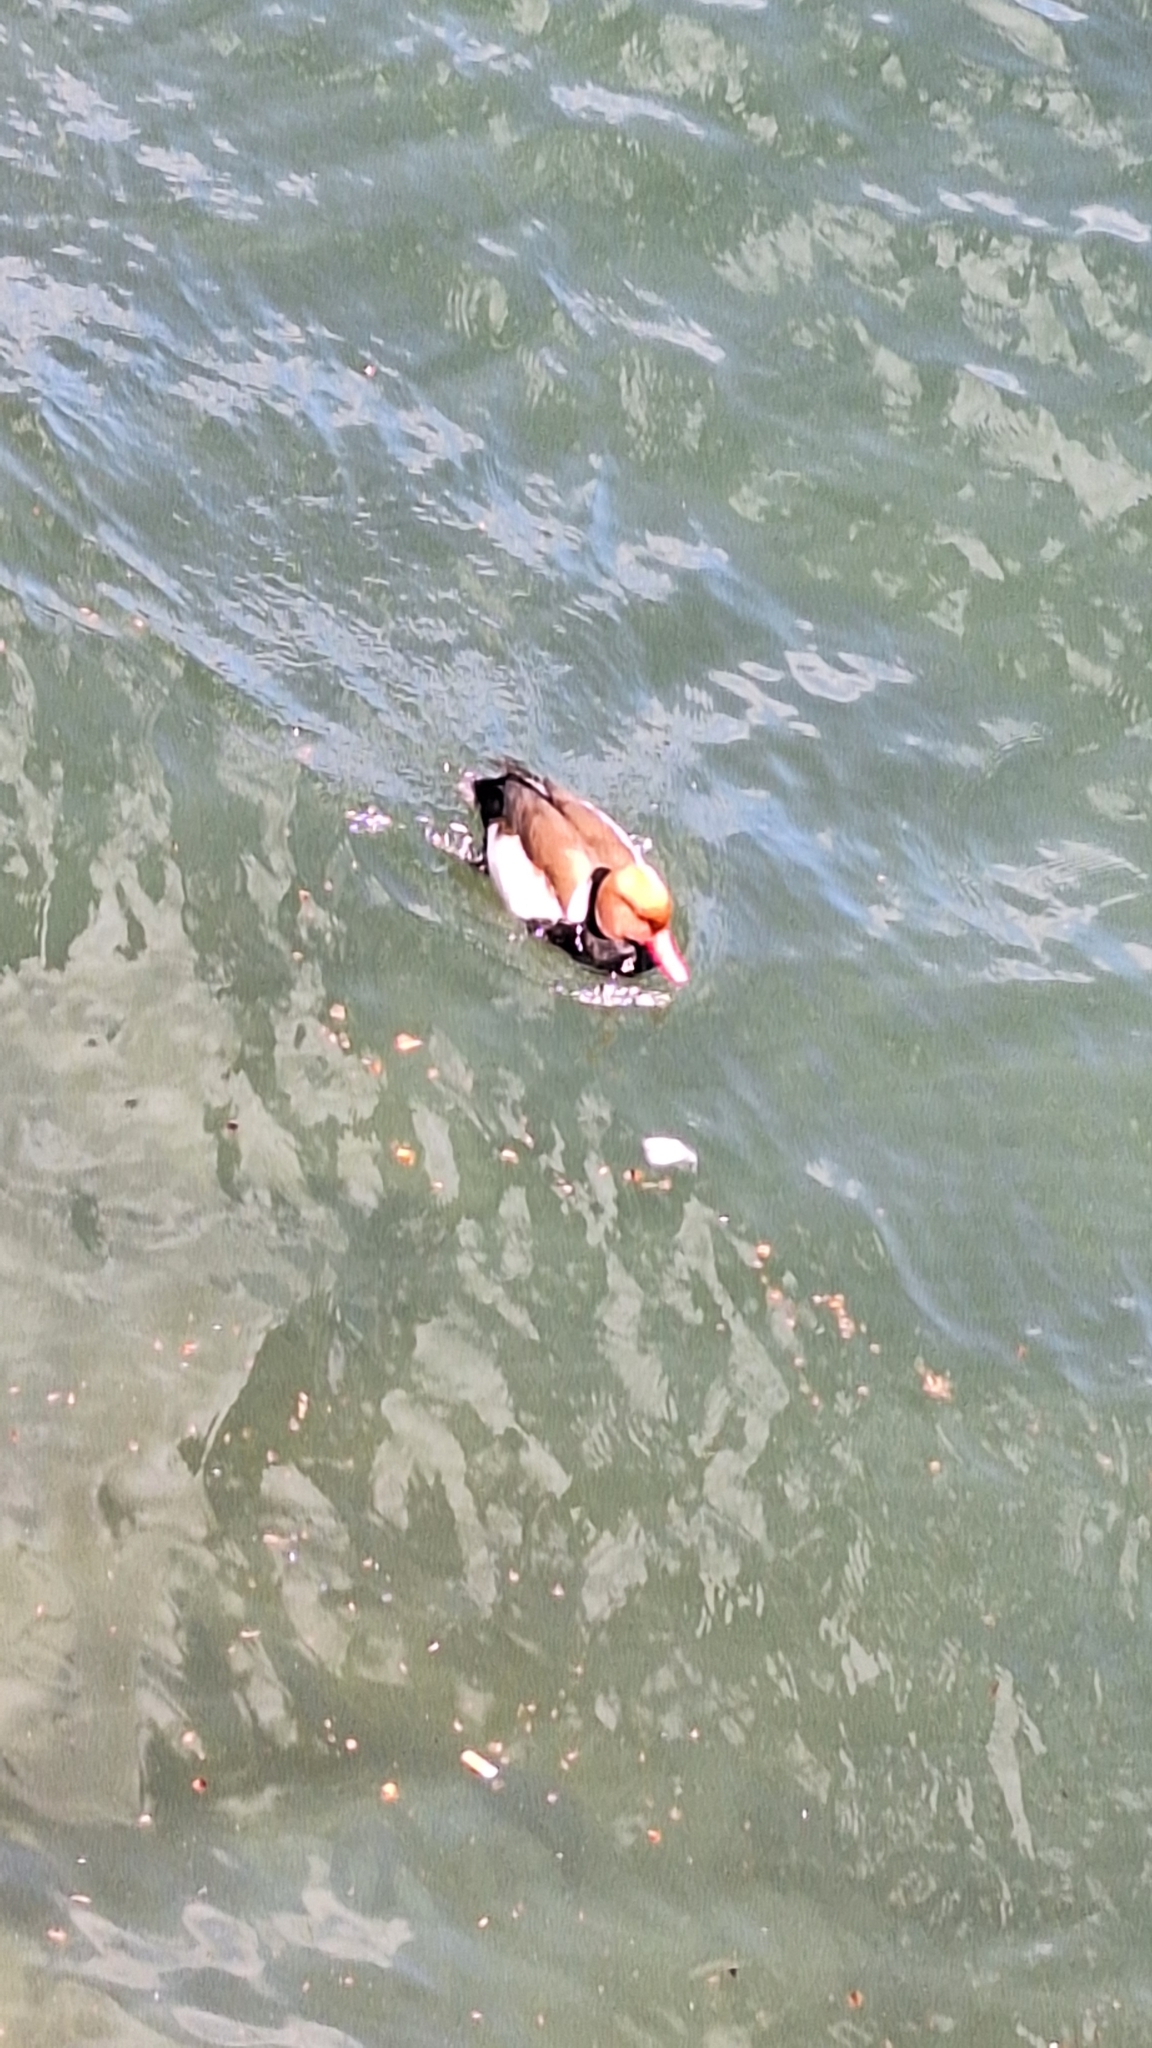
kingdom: Animalia
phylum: Chordata
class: Aves
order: Anseriformes
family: Anatidae
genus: Netta
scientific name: Netta rufina
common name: Red-crested pochard
